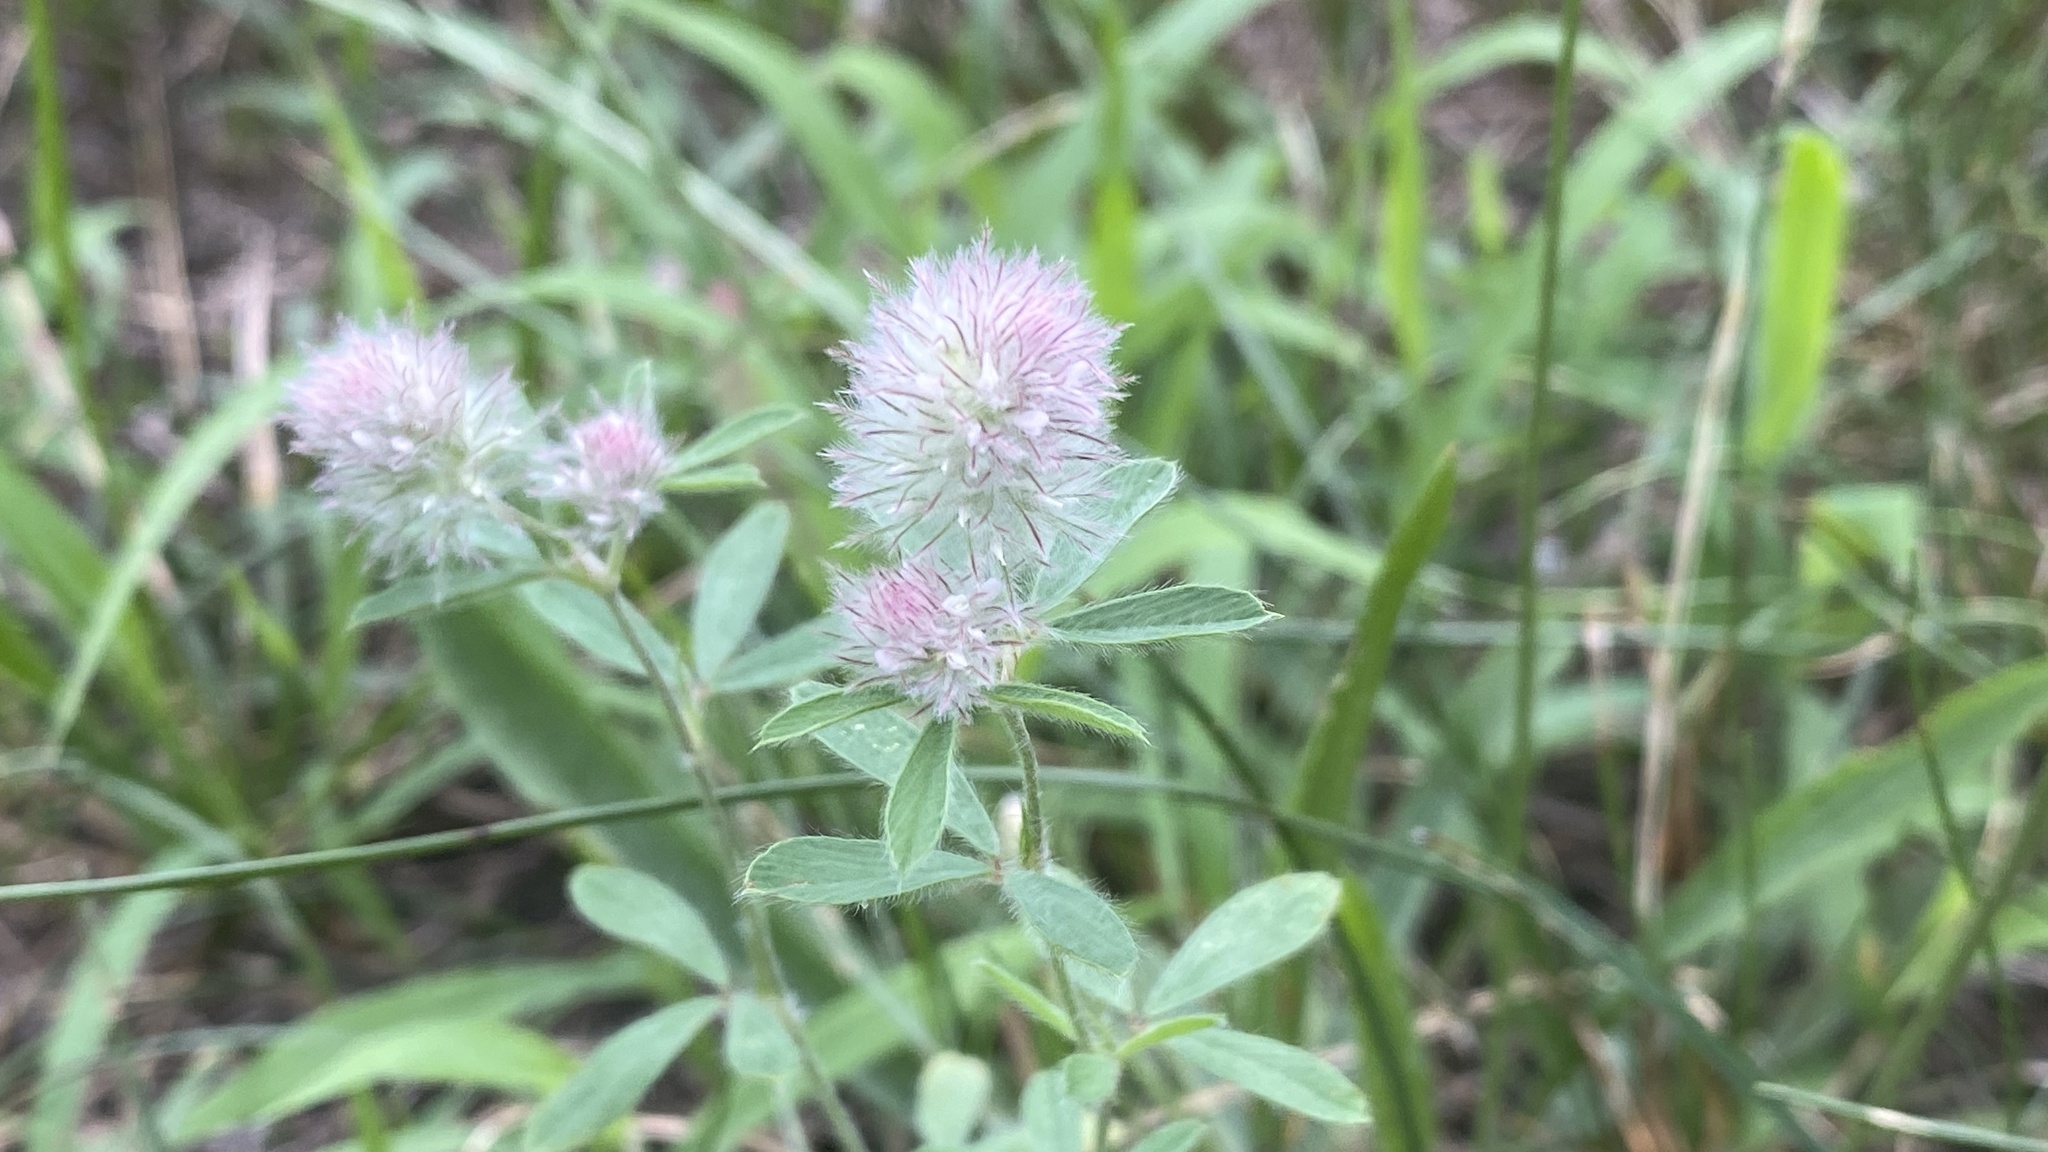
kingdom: Plantae
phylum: Tracheophyta
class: Magnoliopsida
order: Fabales
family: Fabaceae
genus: Trifolium
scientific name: Trifolium arvense
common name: Hare's-foot clover
